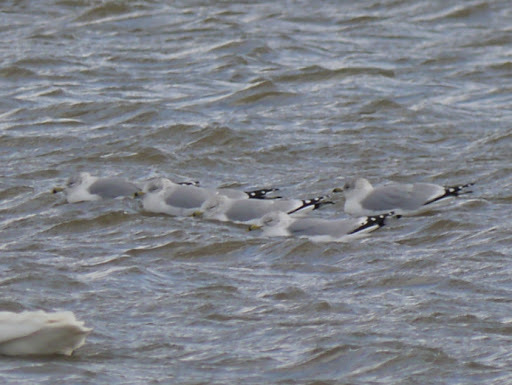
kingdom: Animalia
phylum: Chordata
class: Aves
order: Charadriiformes
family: Laridae
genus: Larus
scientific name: Larus delawarensis
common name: Ring-billed gull
